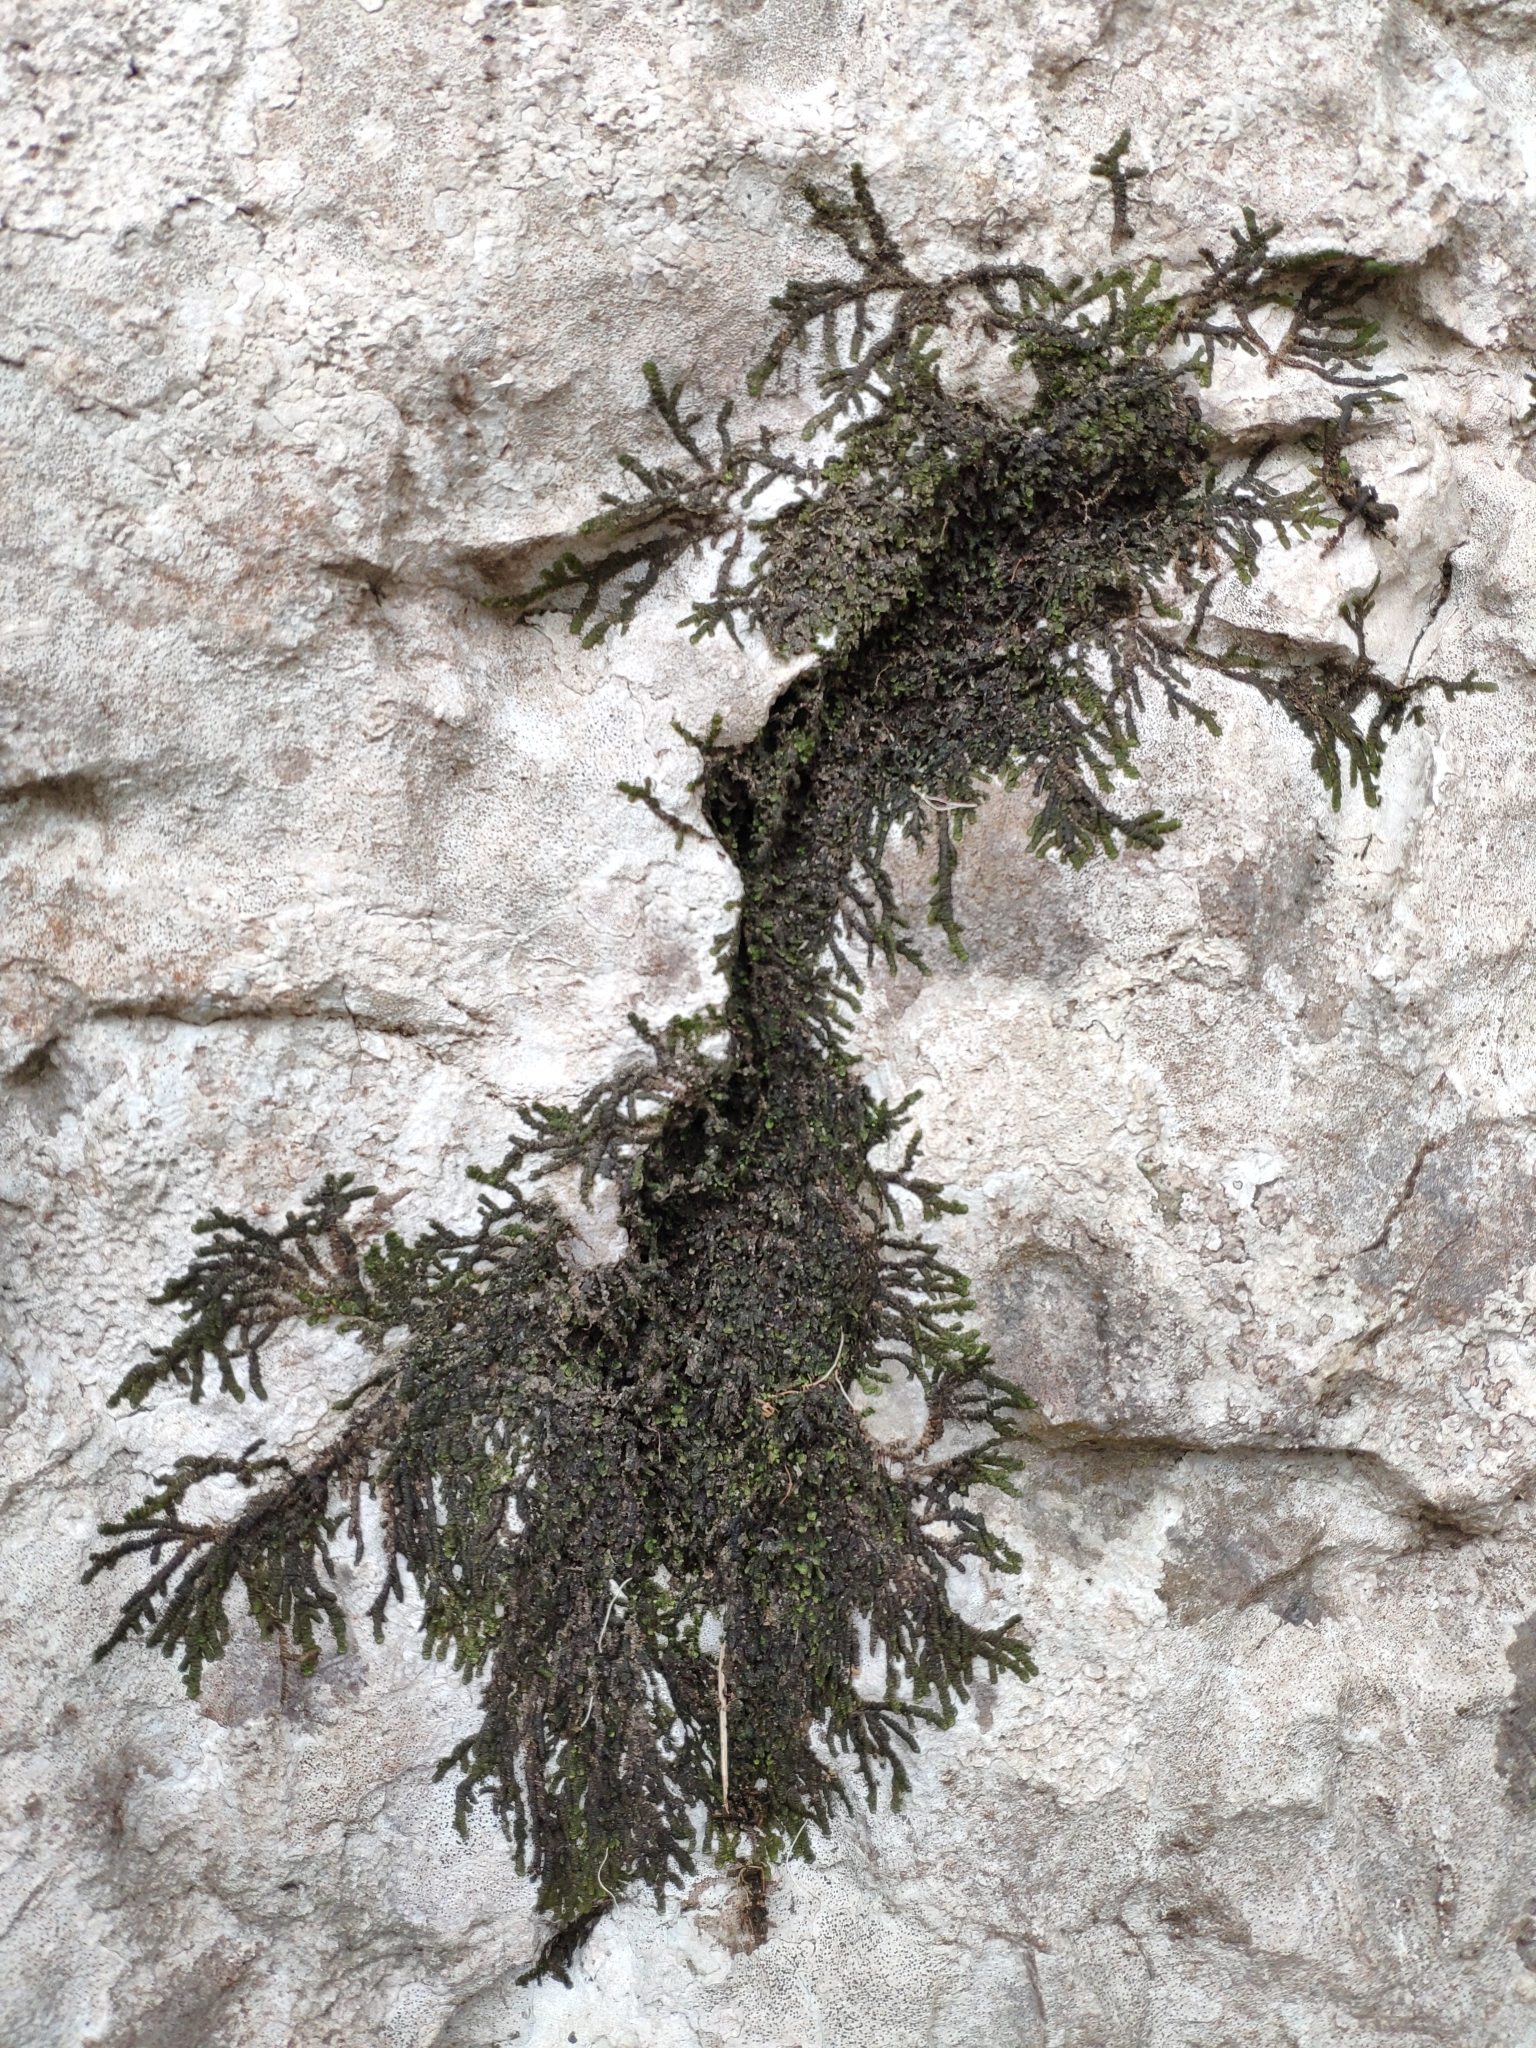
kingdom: Plantae
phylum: Marchantiophyta
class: Jungermanniopsida
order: Porellales
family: Frullaniaceae
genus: Frullania
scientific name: Frullania dilatata
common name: Dilated scalewort
